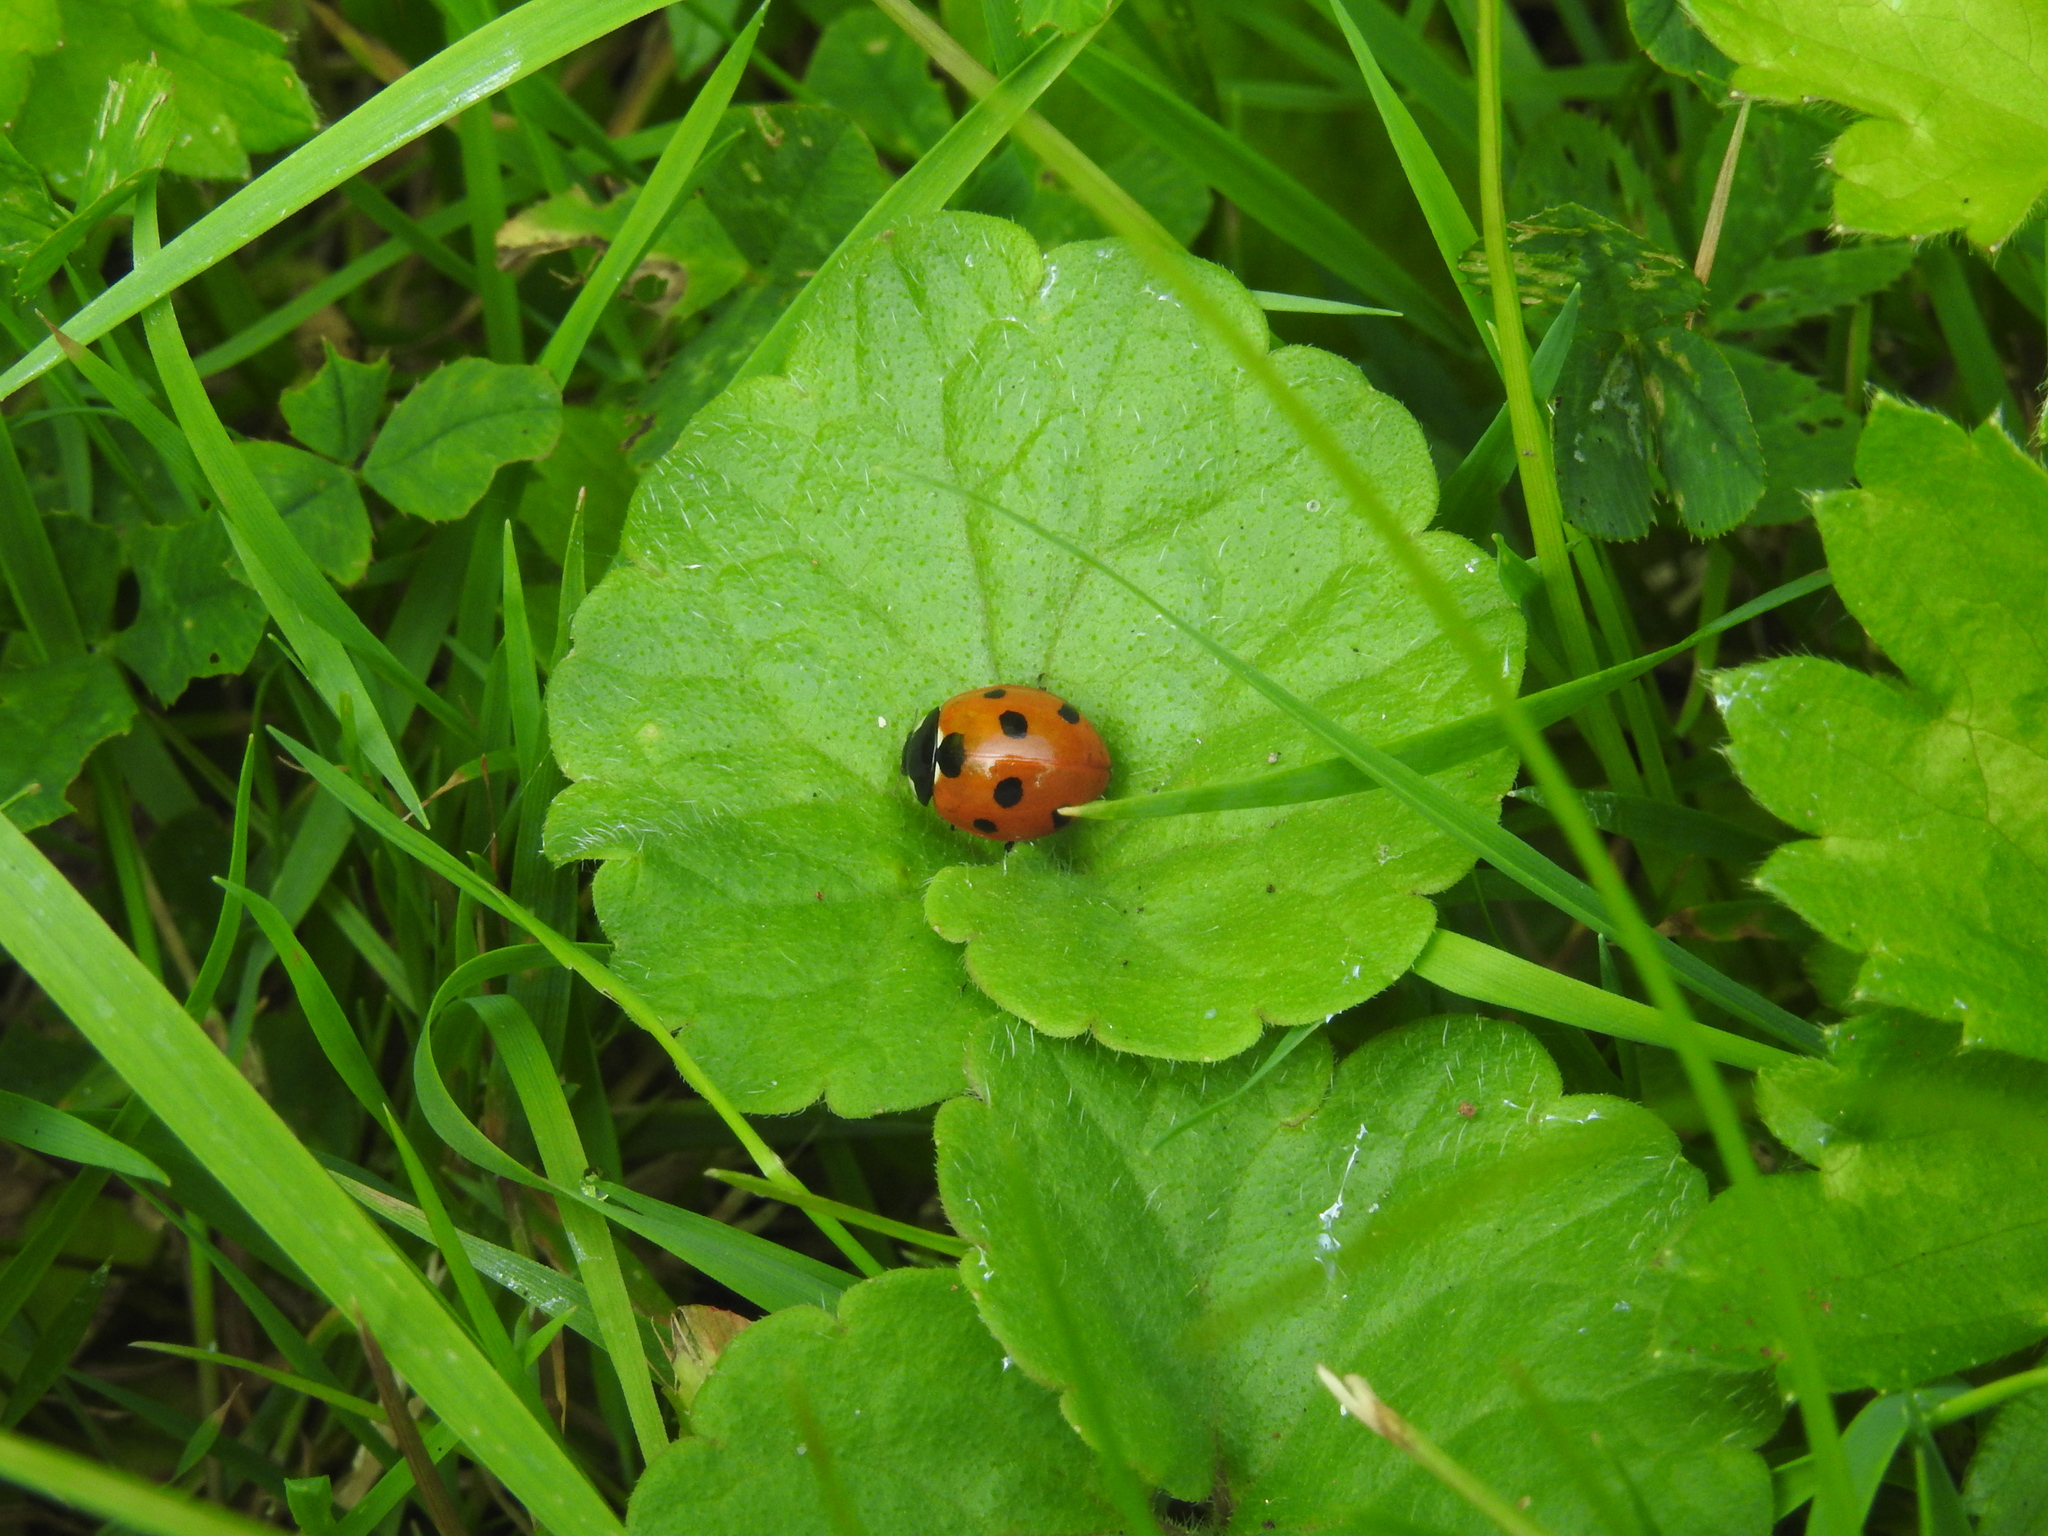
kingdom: Animalia
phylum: Arthropoda
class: Insecta
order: Coleoptera
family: Coccinellidae
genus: Coccinella
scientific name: Coccinella septempunctata
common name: Sevenspotted lady beetle
